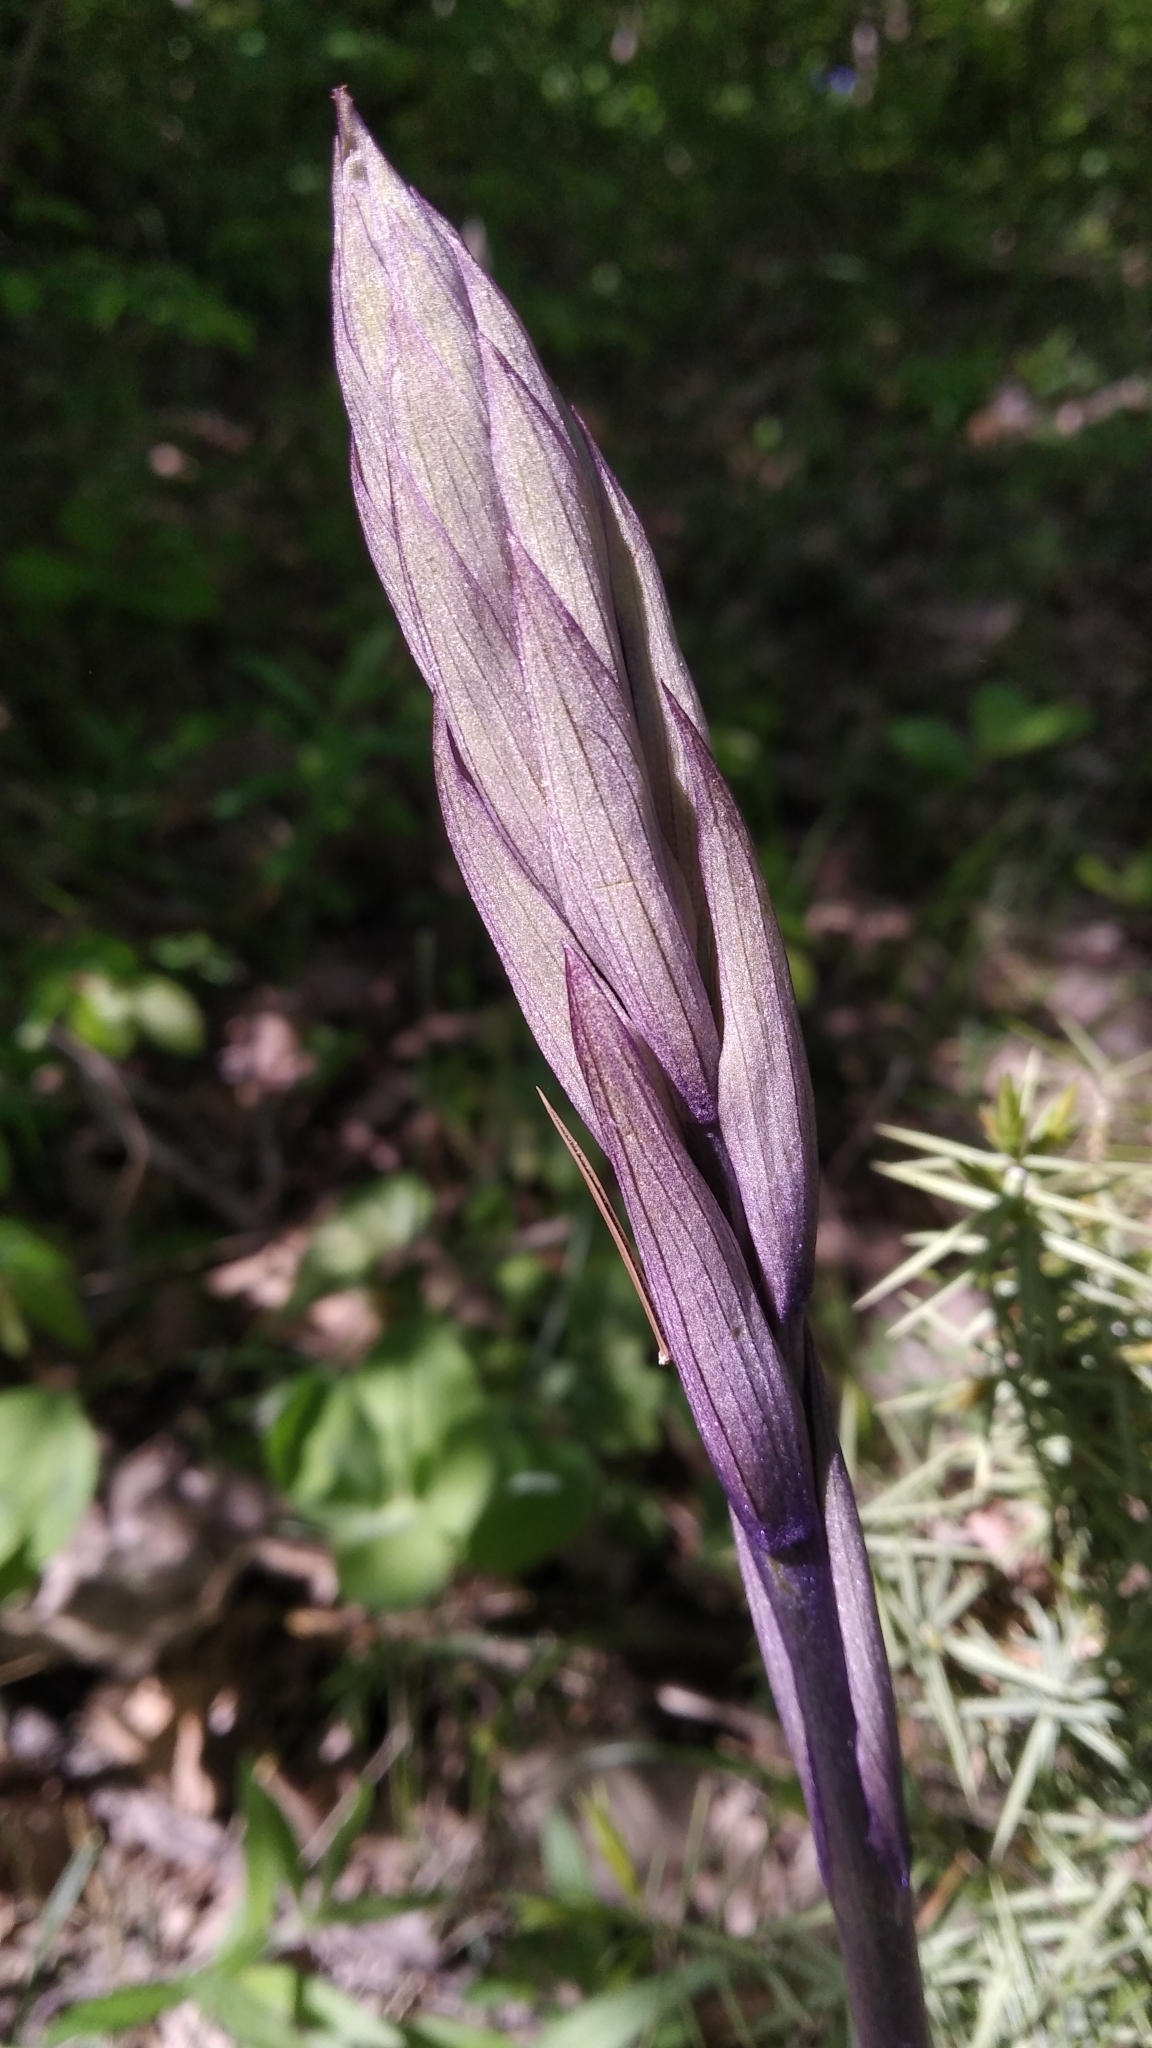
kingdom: Plantae
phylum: Tracheophyta
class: Liliopsida
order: Asparagales
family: Orchidaceae
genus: Limodorum
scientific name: Limodorum abortivum
